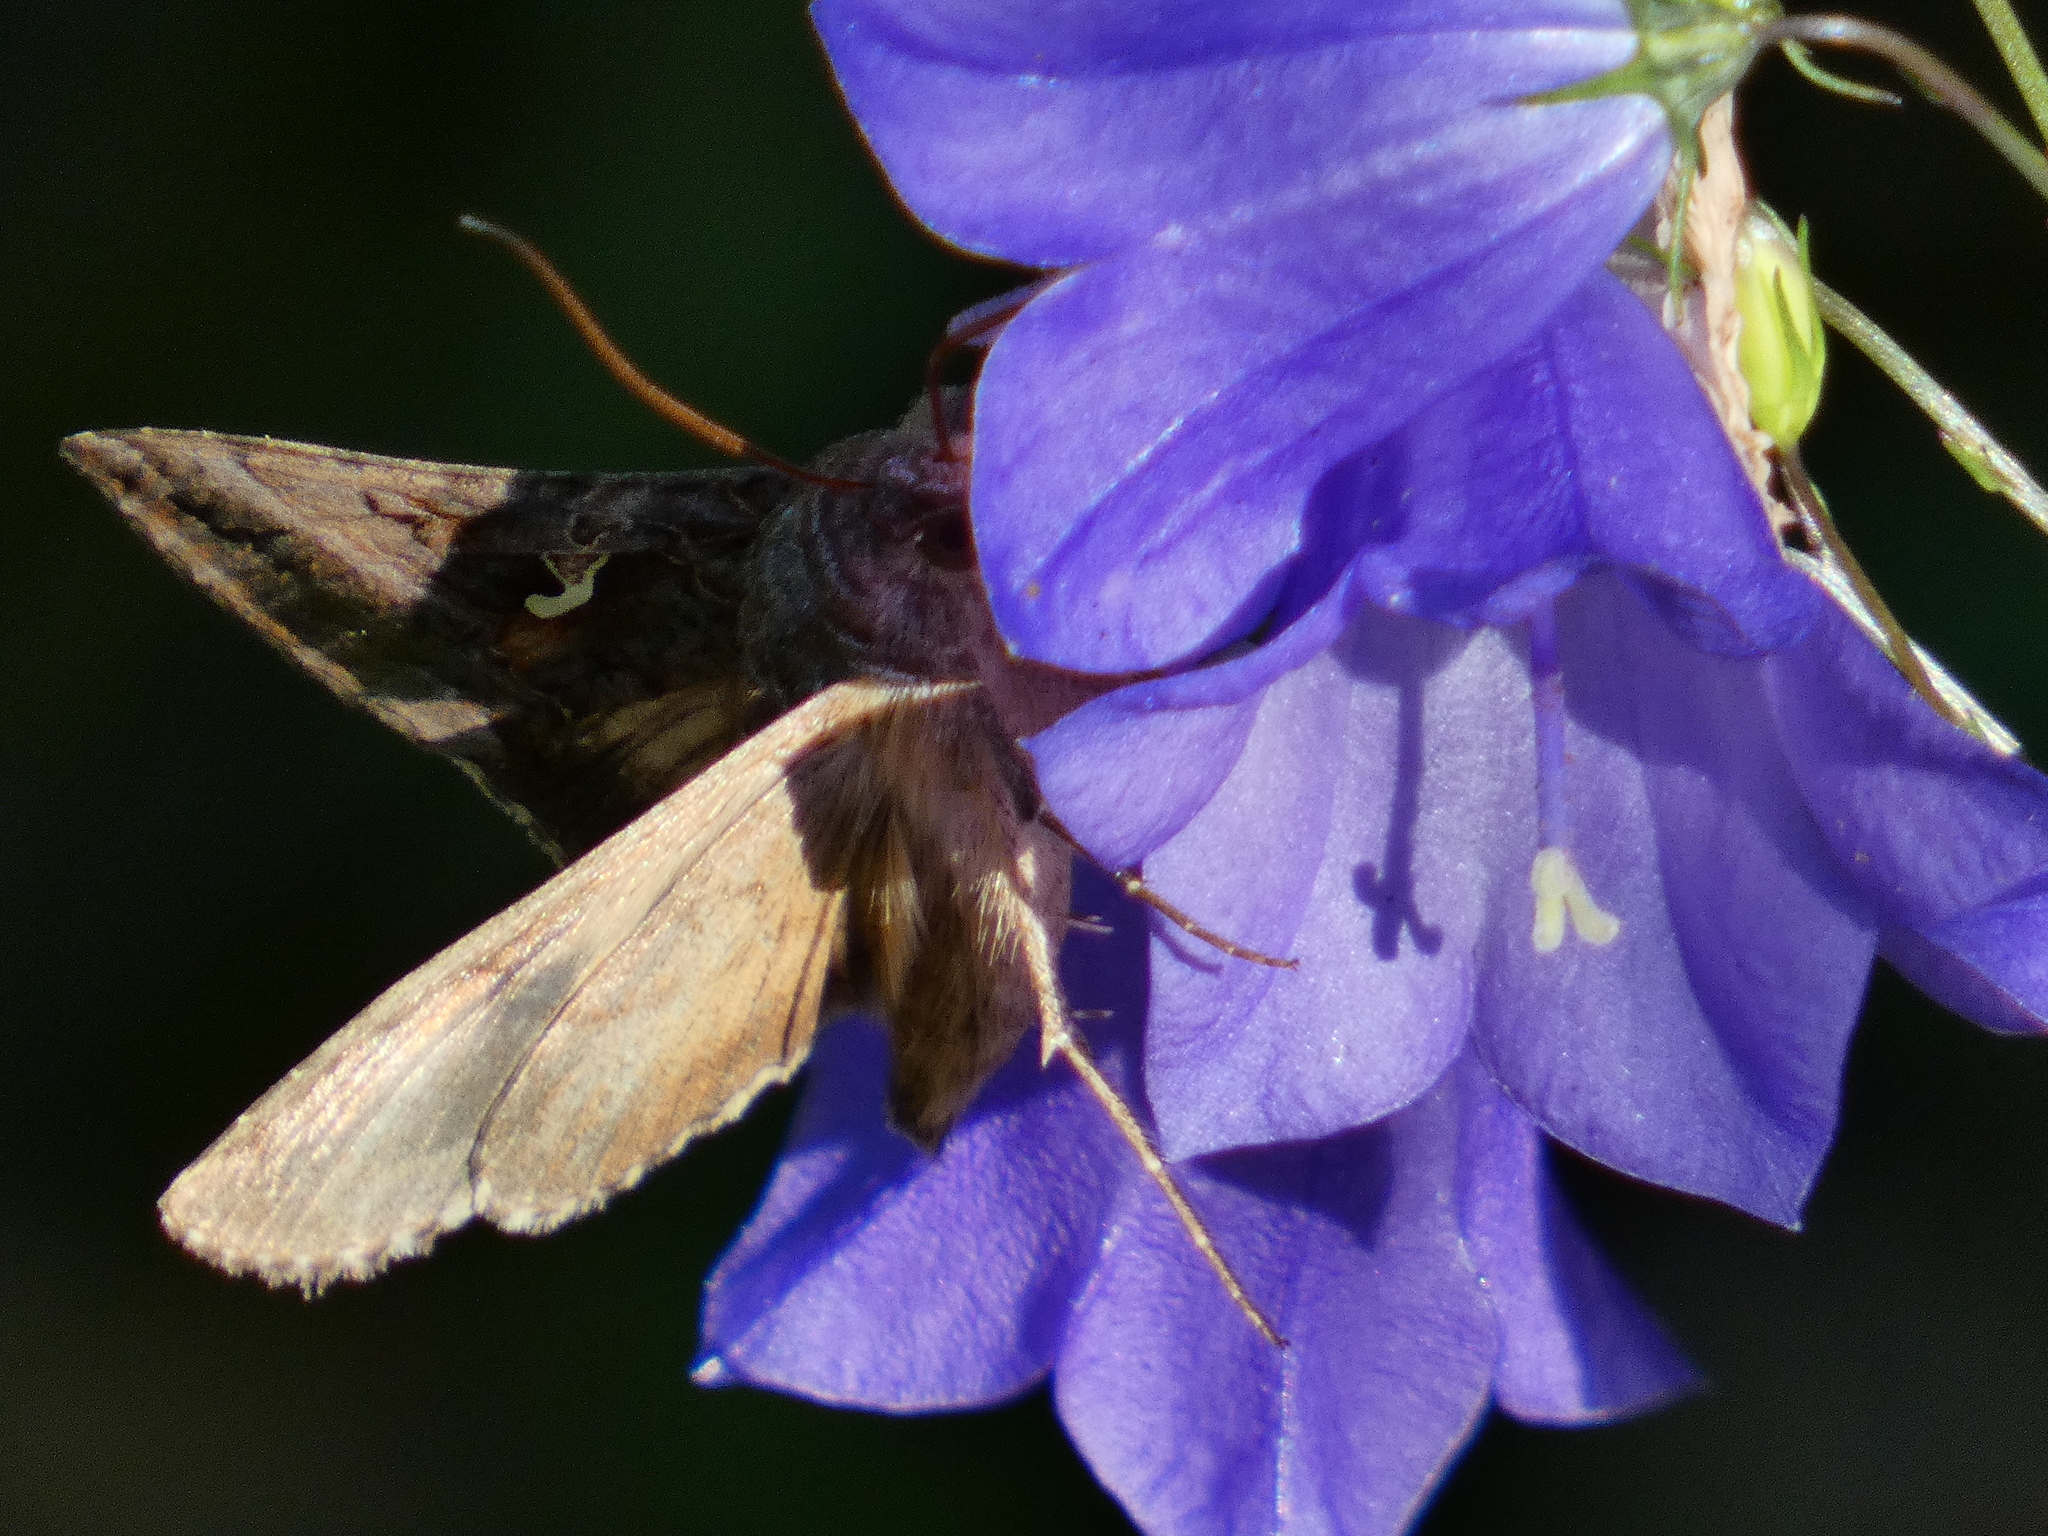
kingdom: Animalia
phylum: Arthropoda
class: Insecta
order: Lepidoptera
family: Noctuidae
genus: Autographa
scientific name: Autographa gamma
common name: Silver y
